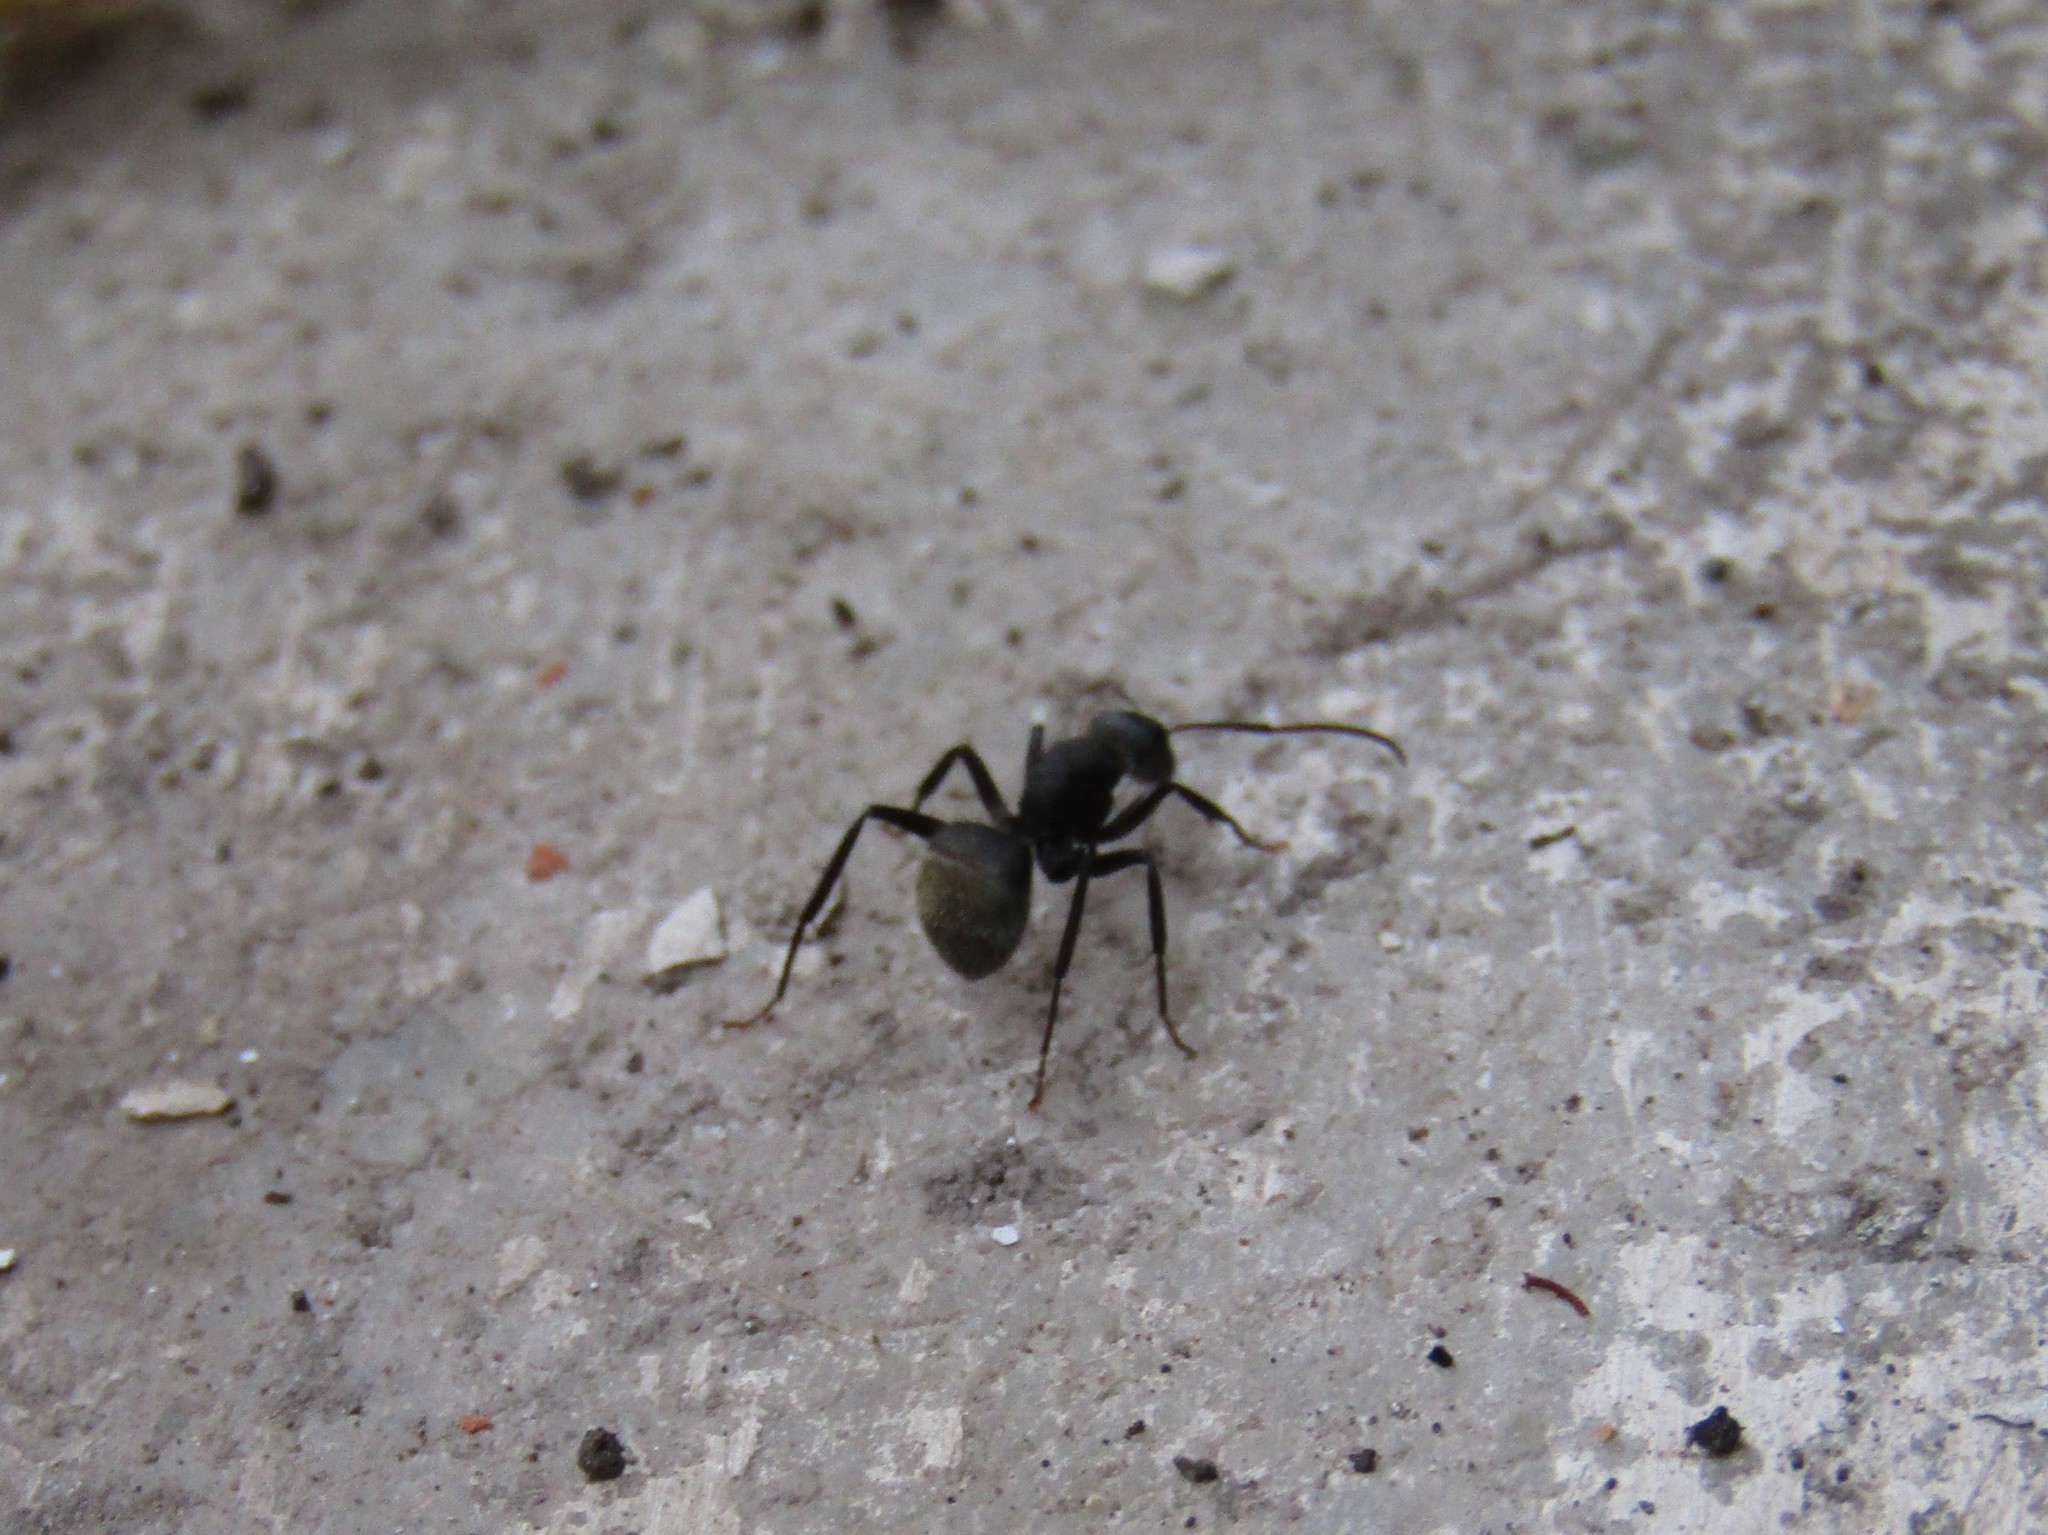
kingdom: Animalia
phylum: Arthropoda
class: Insecta
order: Hymenoptera
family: Formicidae
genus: Camponotus
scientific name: Camponotus mus
